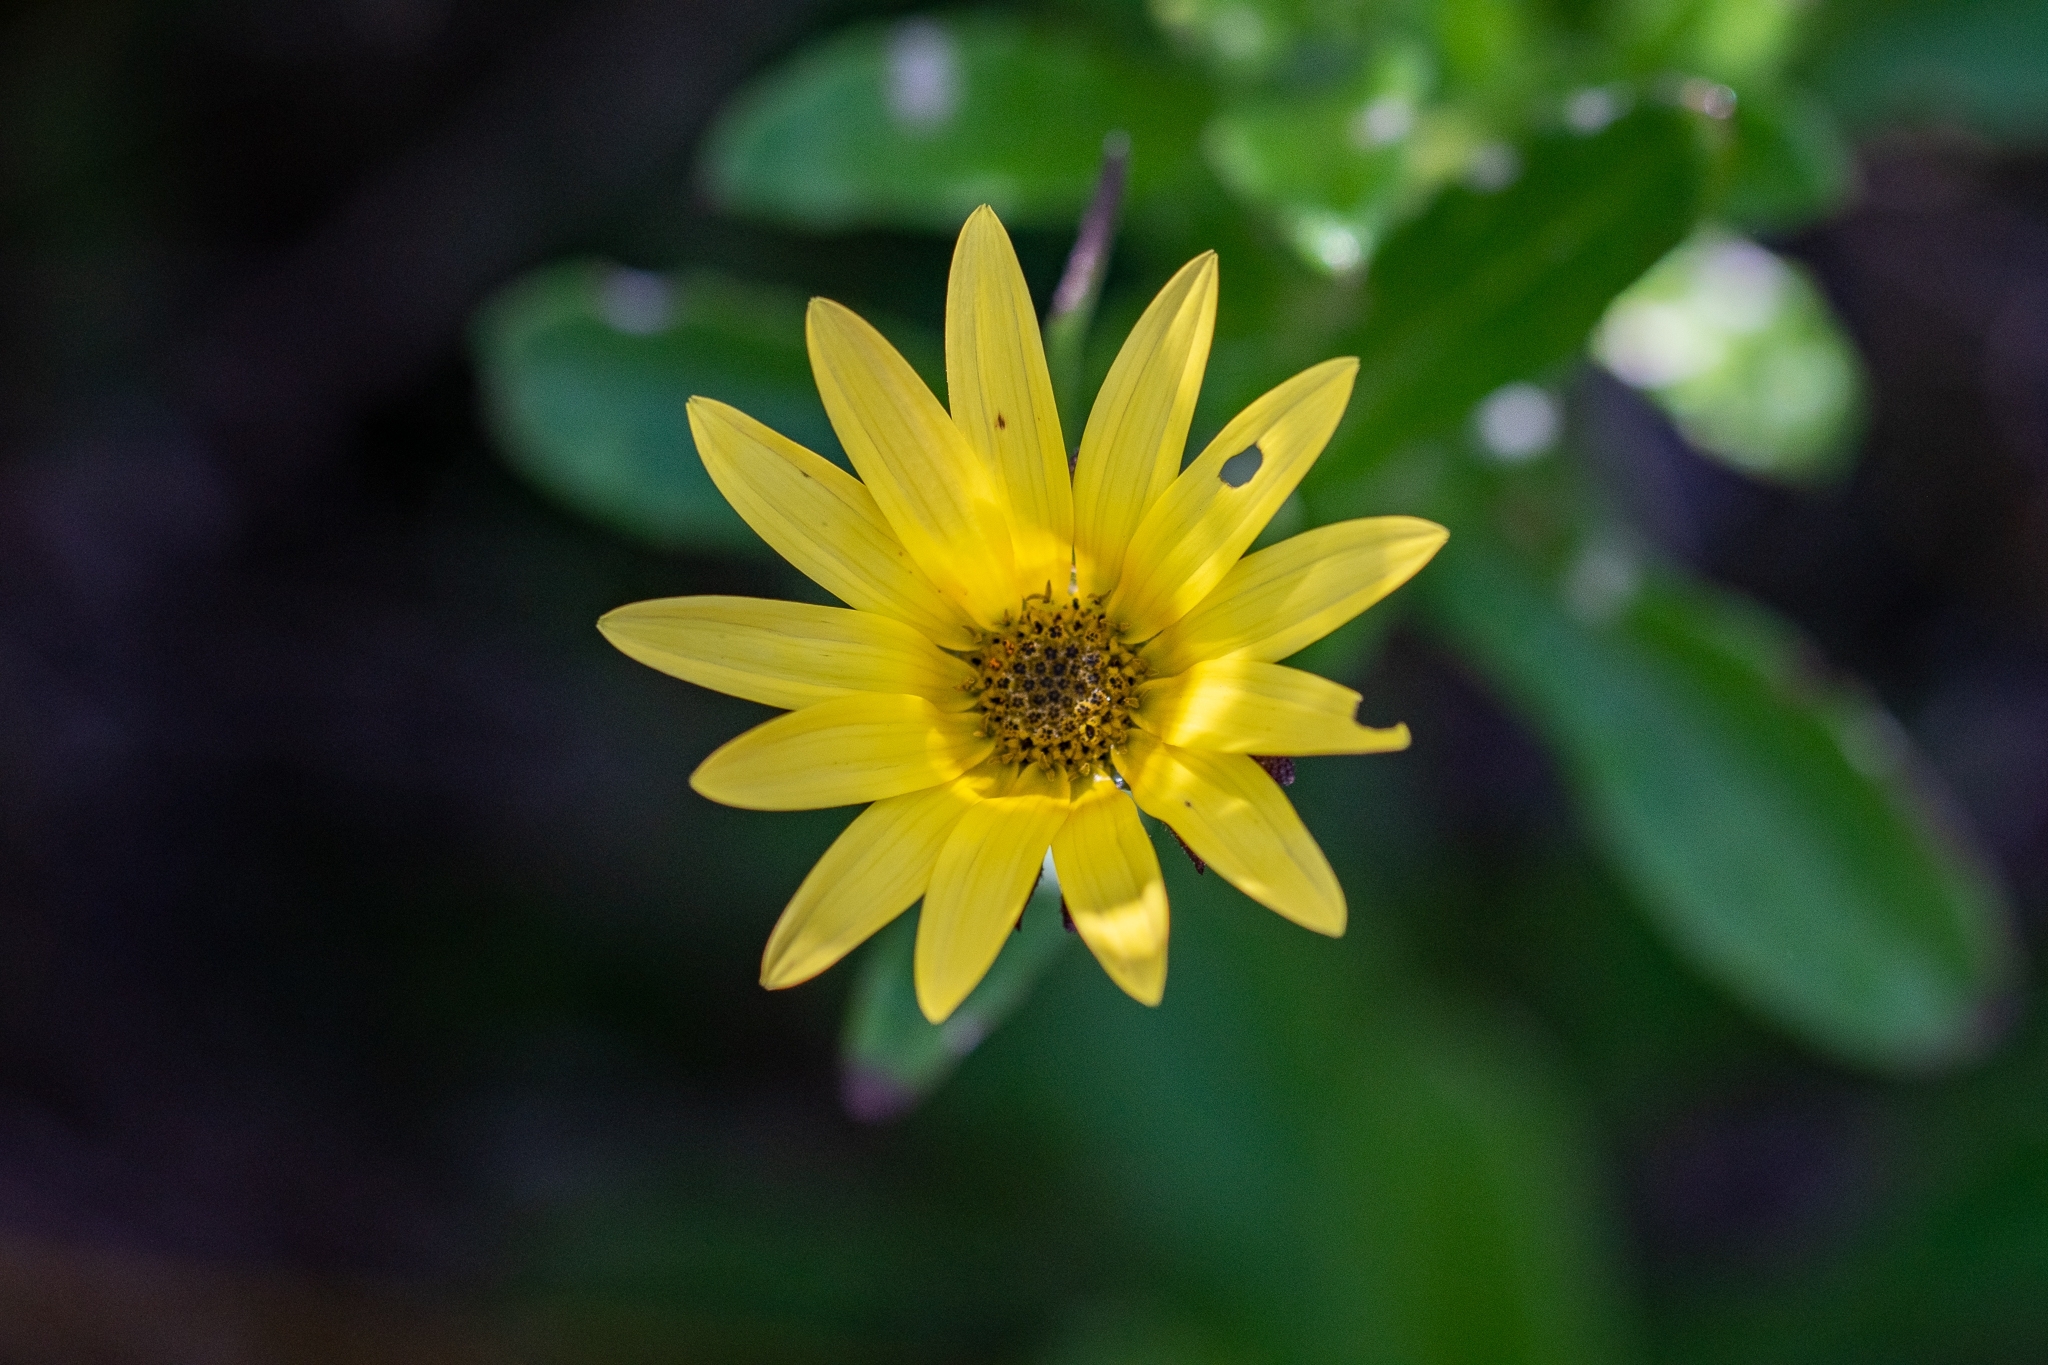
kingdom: Plantae
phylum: Tracheophyta
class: Magnoliopsida
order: Asterales
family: Asteraceae
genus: Arctotis
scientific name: Arctotis scabra
